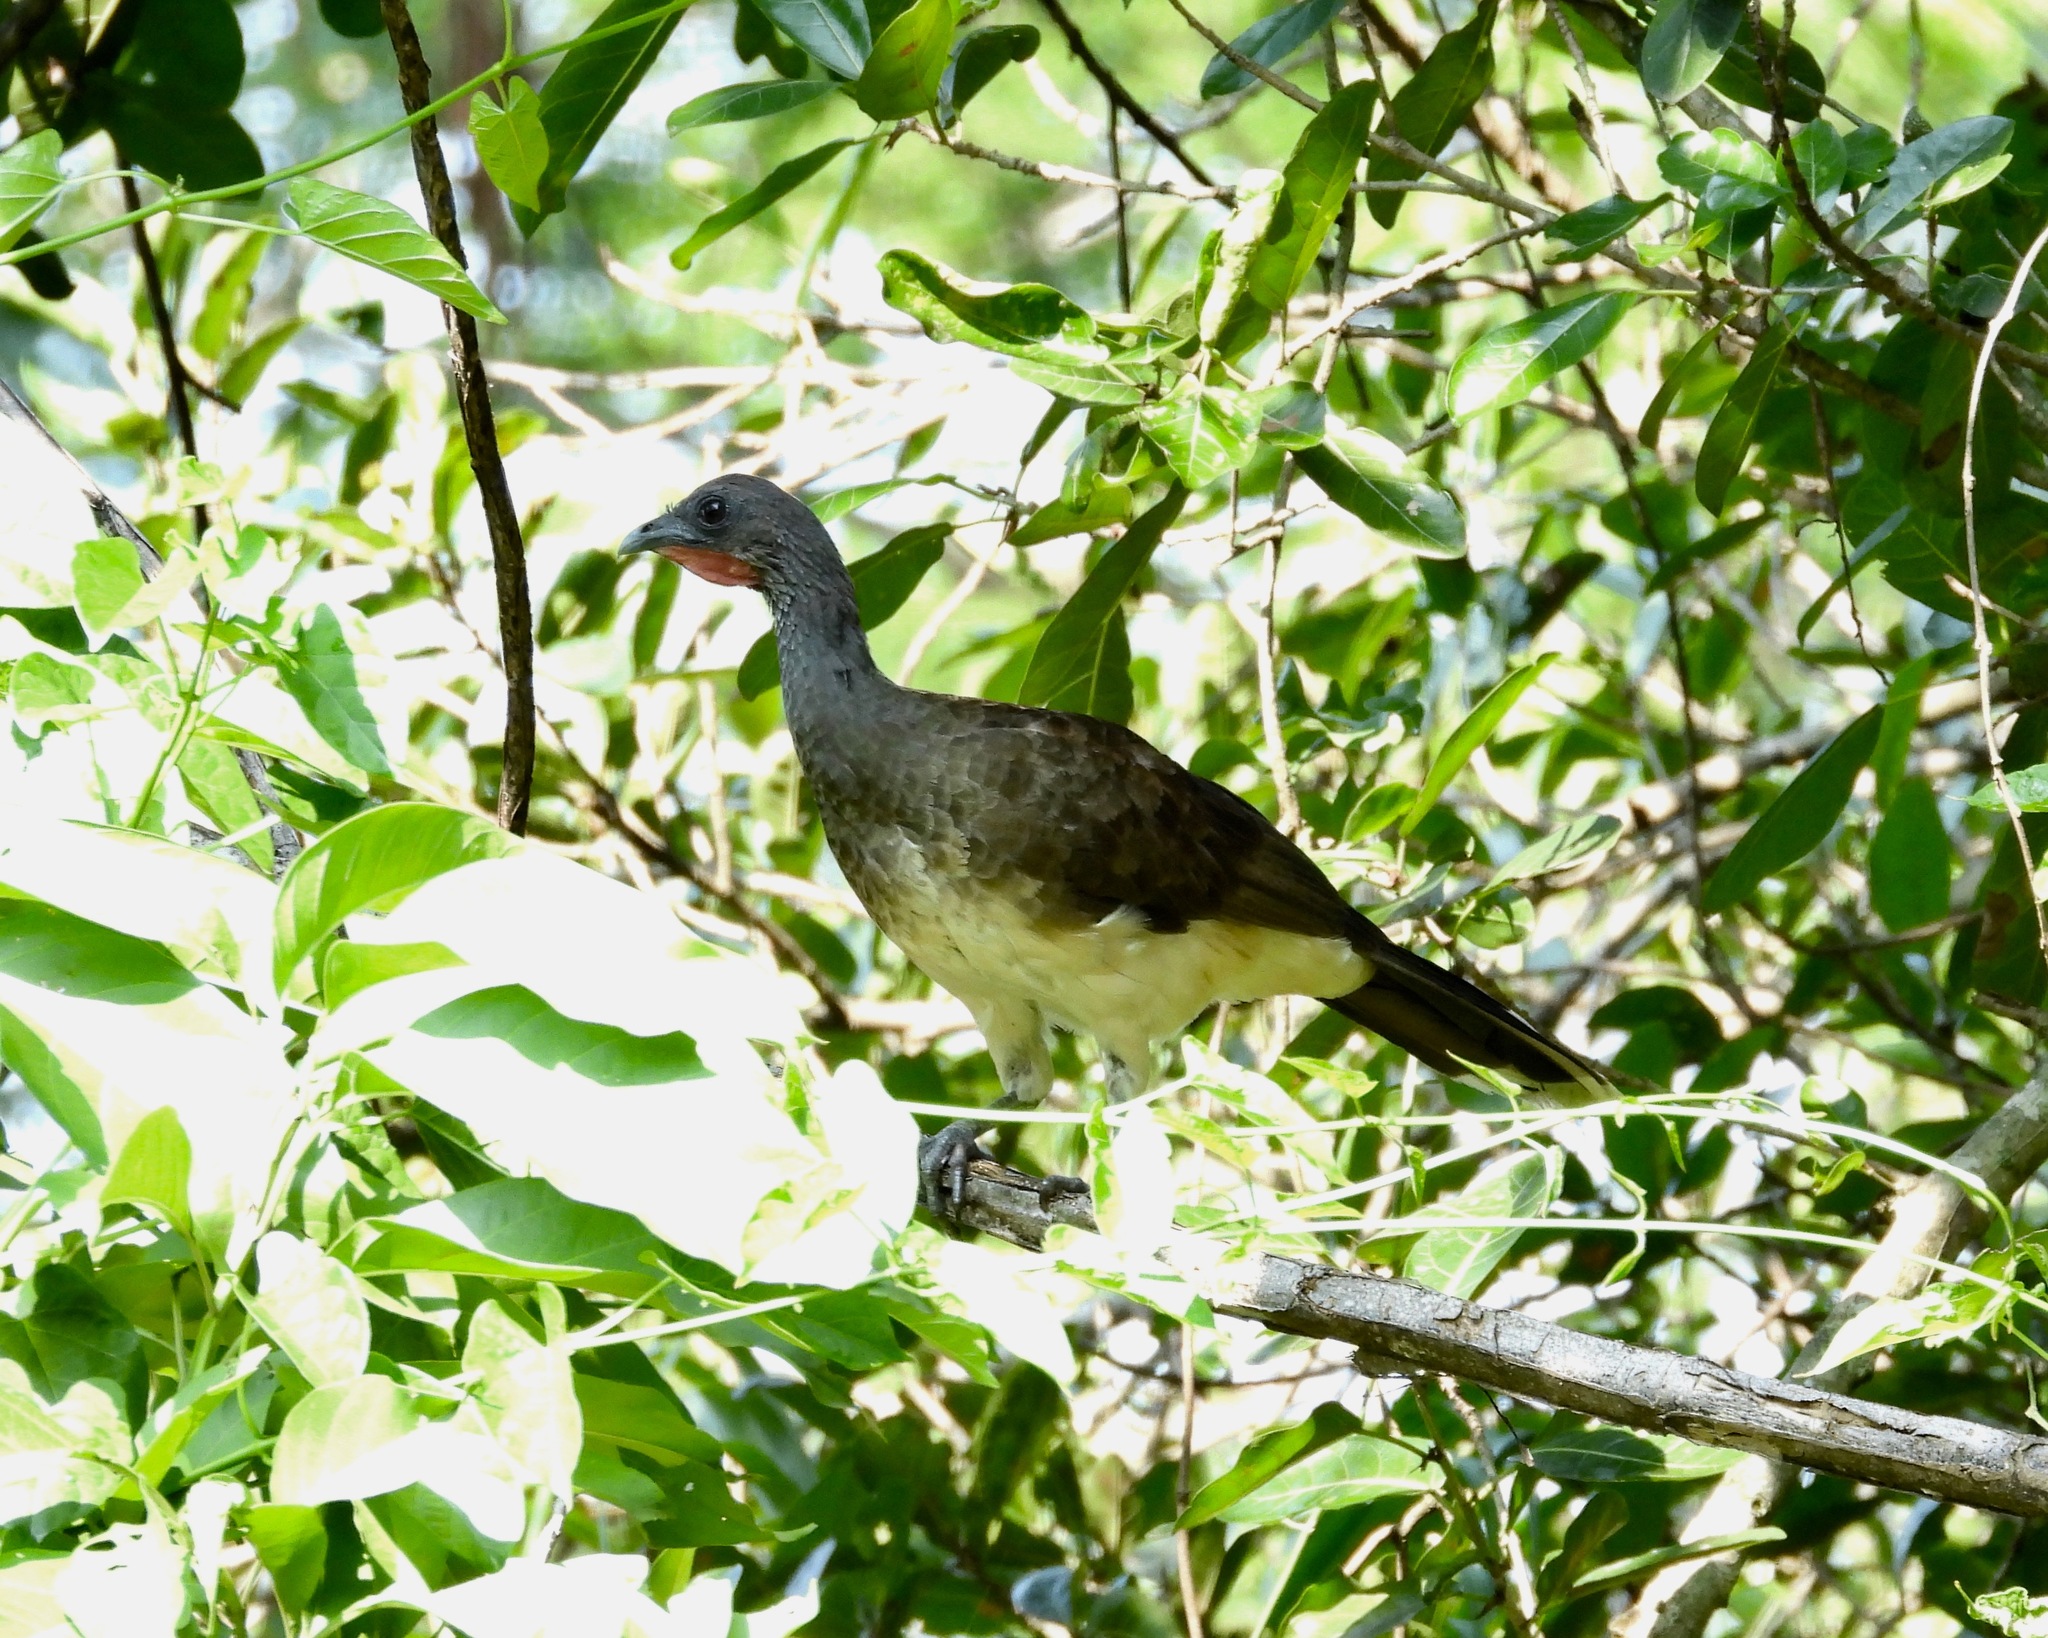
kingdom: Animalia
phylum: Chordata
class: Aves
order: Galliformes
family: Cracidae
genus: Ortalis
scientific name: Ortalis leucogastra
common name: White-bellied chachalaca
